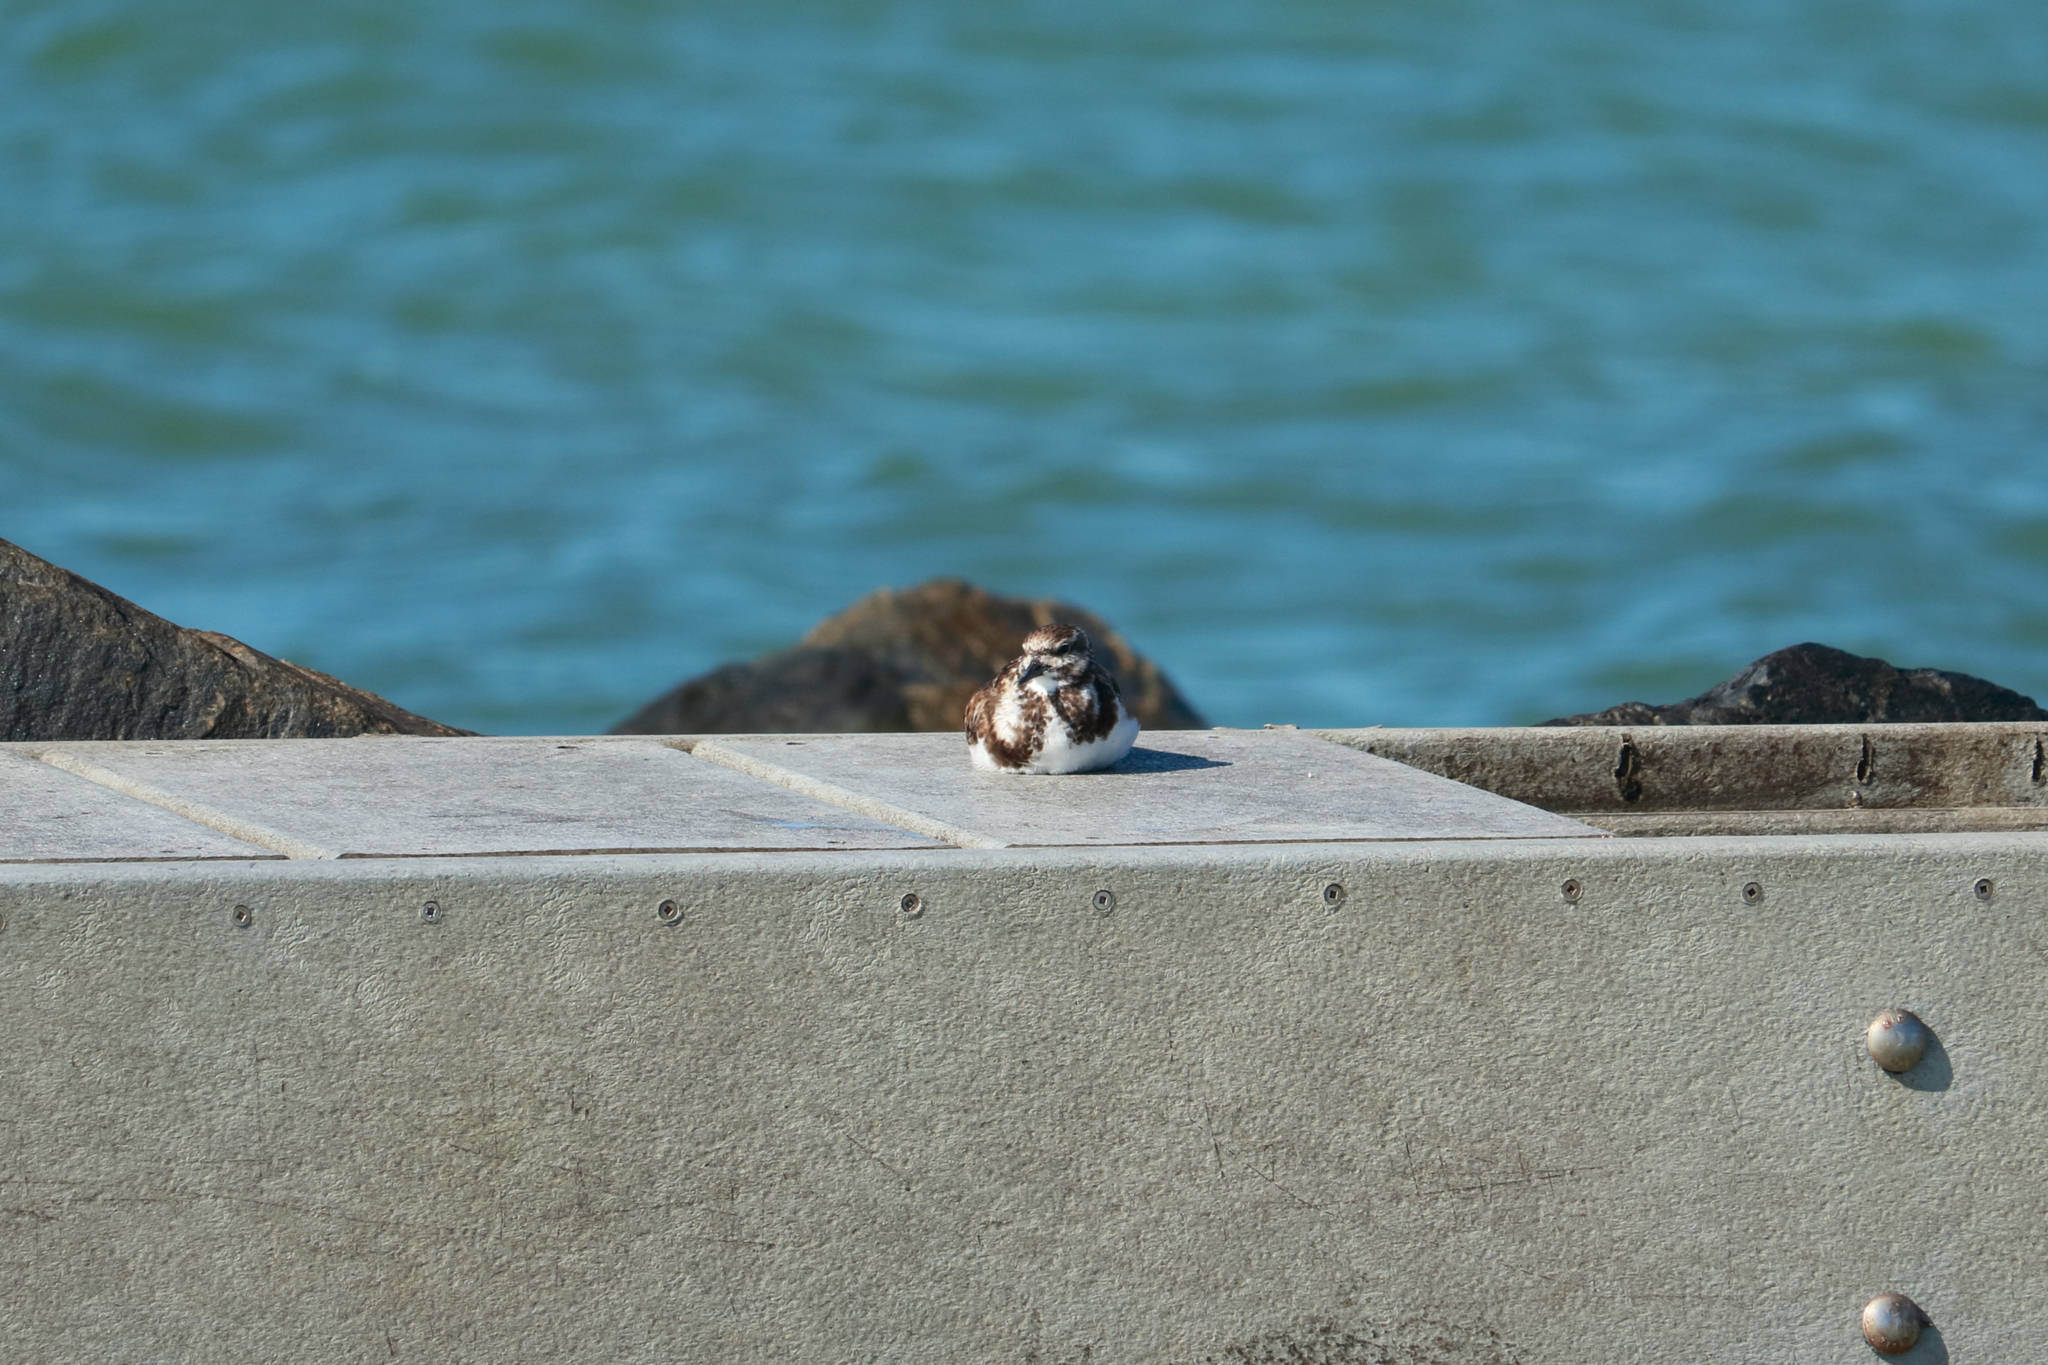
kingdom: Animalia
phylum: Chordata
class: Aves
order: Charadriiformes
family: Scolopacidae
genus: Arenaria
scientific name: Arenaria interpres
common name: Ruddy turnstone
